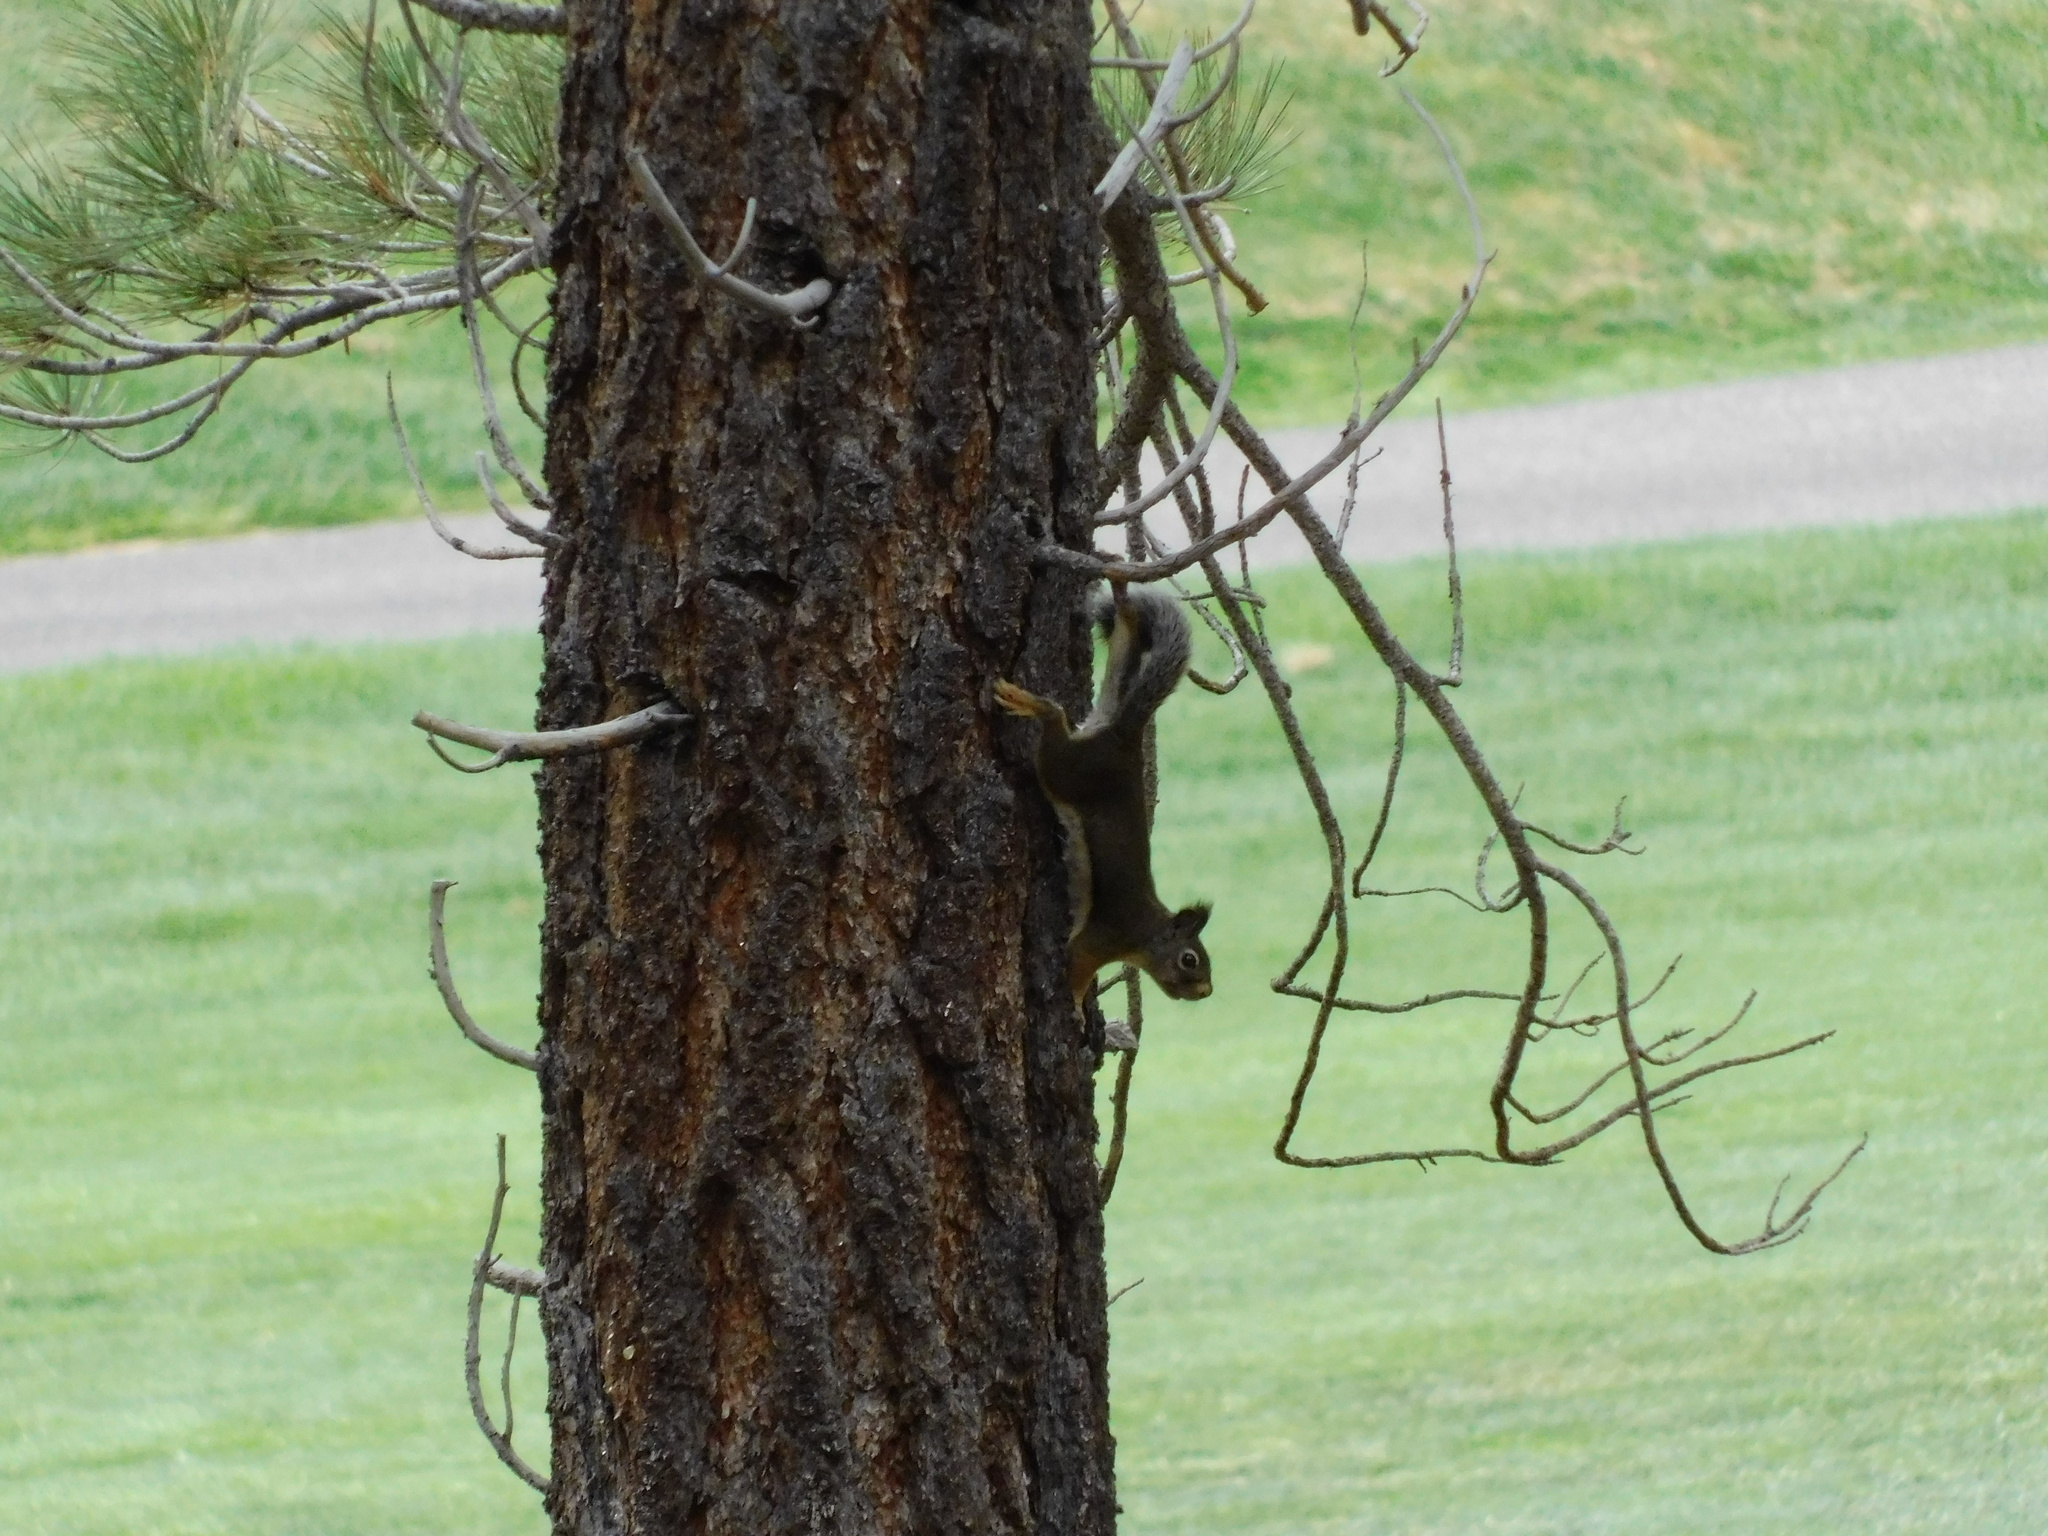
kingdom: Animalia
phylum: Chordata
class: Mammalia
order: Rodentia
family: Sciuridae
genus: Tamiasciurus
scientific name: Tamiasciurus douglasii
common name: Douglas's squirrel
